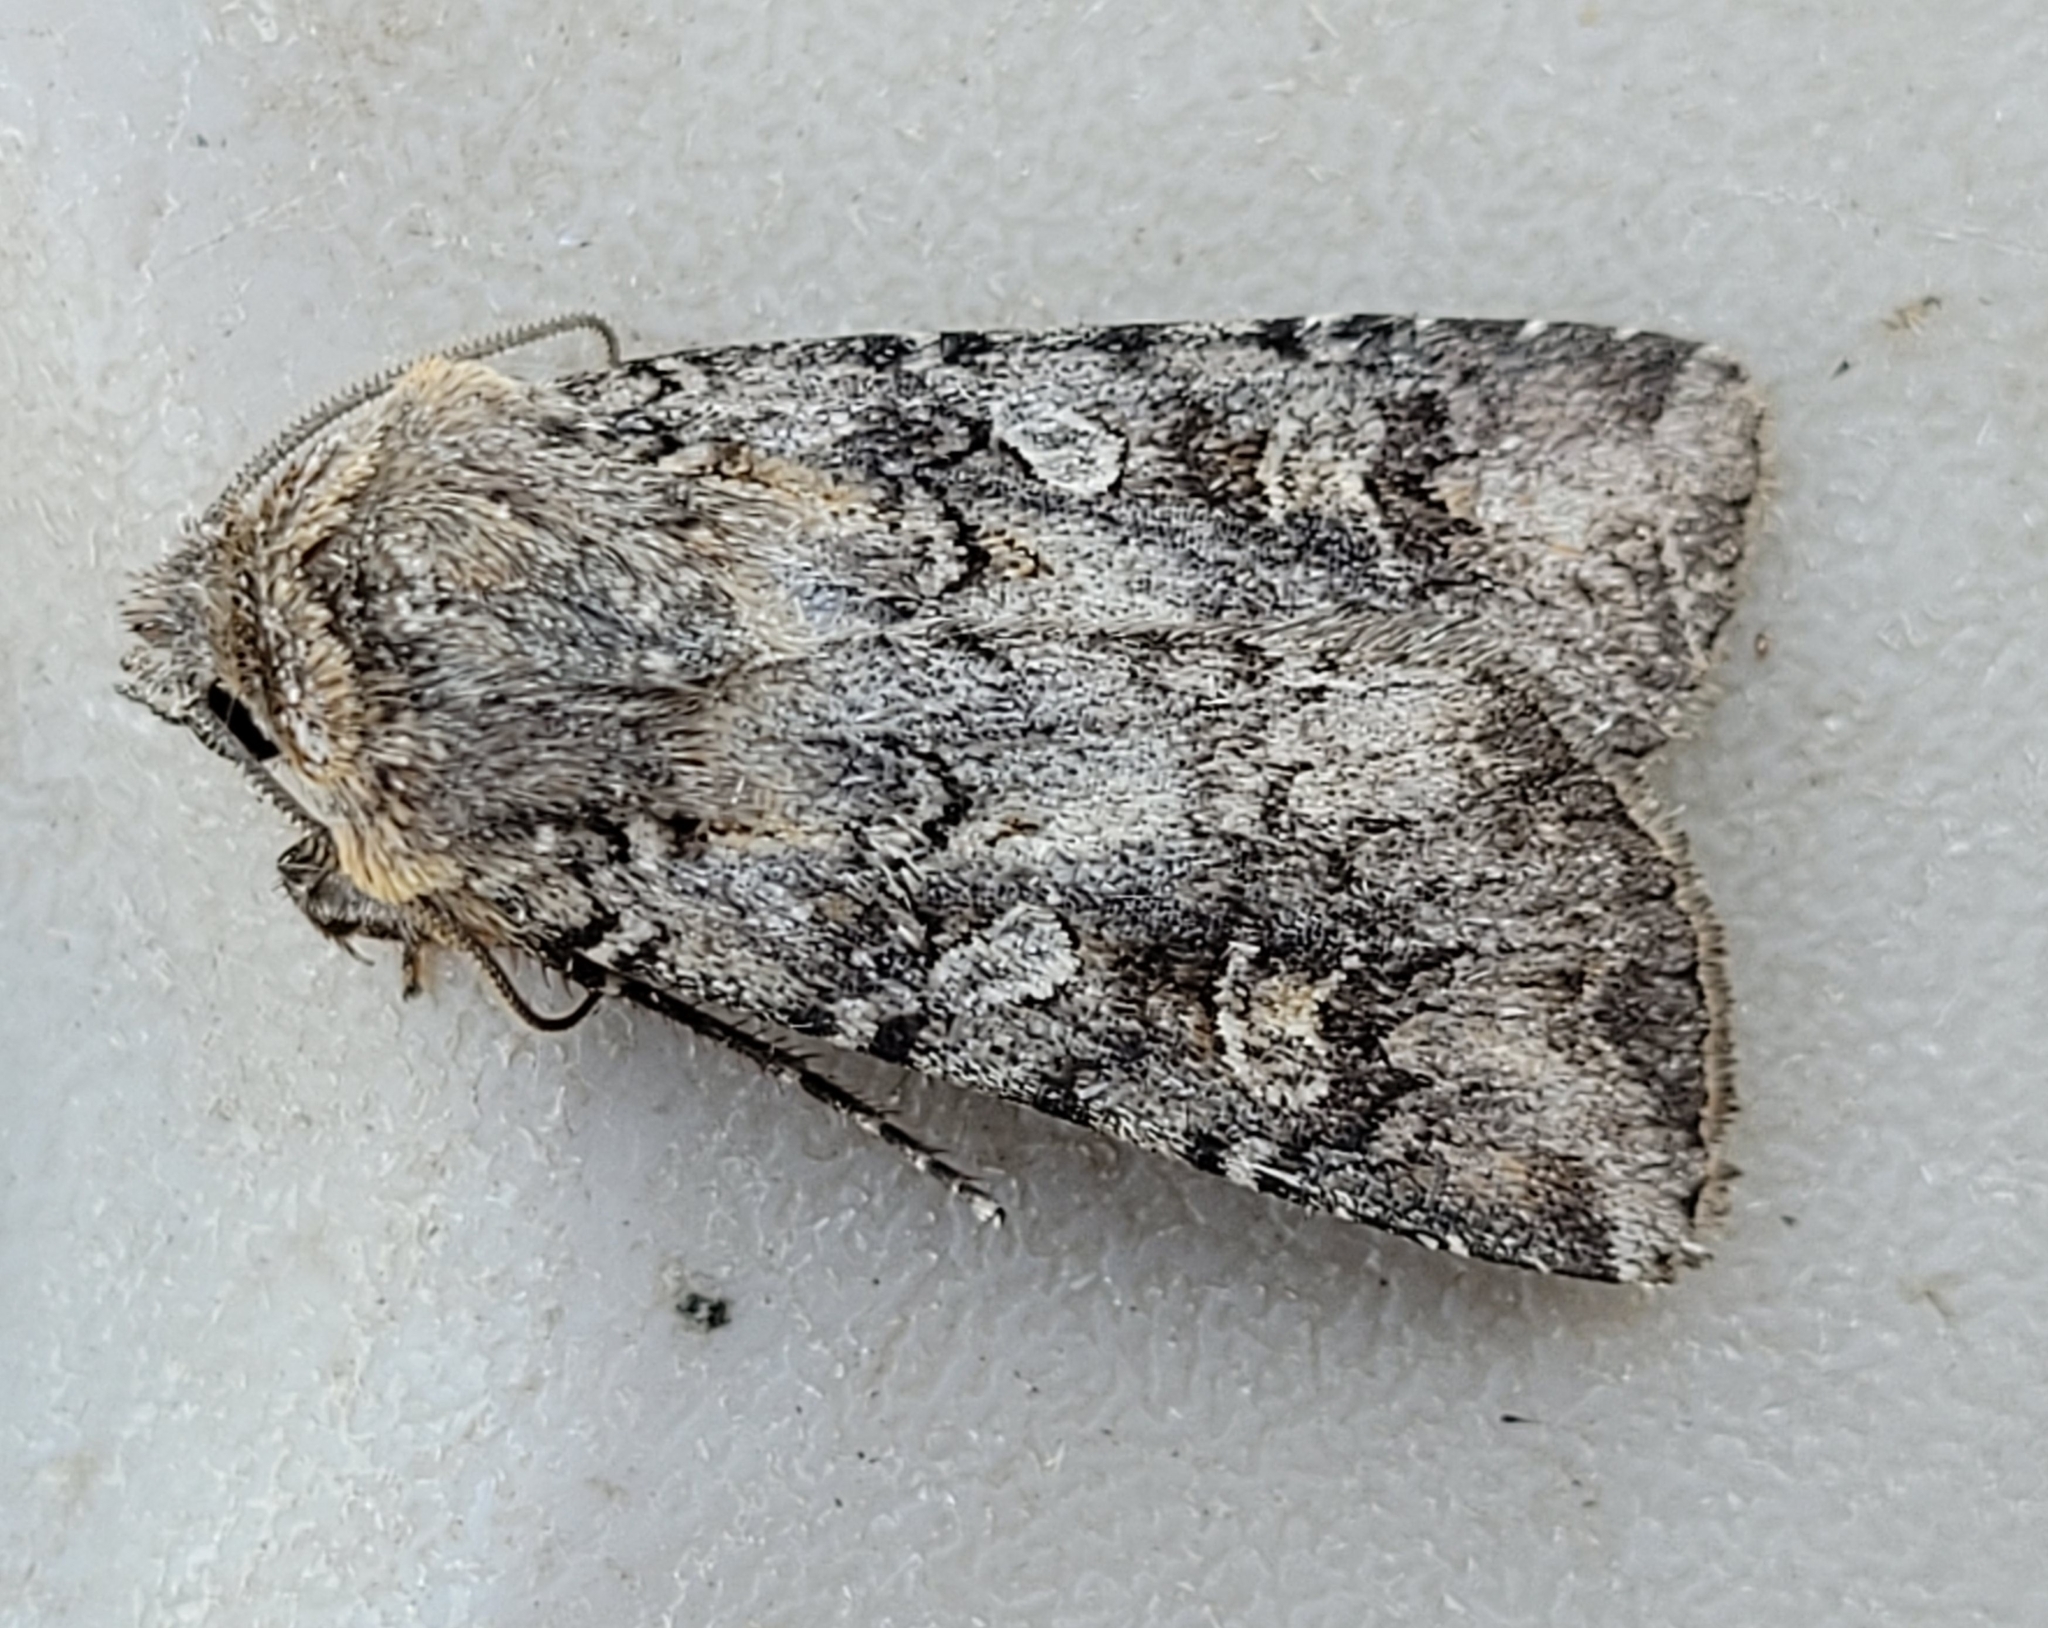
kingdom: Animalia
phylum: Arthropoda
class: Insecta
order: Lepidoptera
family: Noctuidae
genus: Euxoa
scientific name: Euxoa tessellata
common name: Striped cutworm
